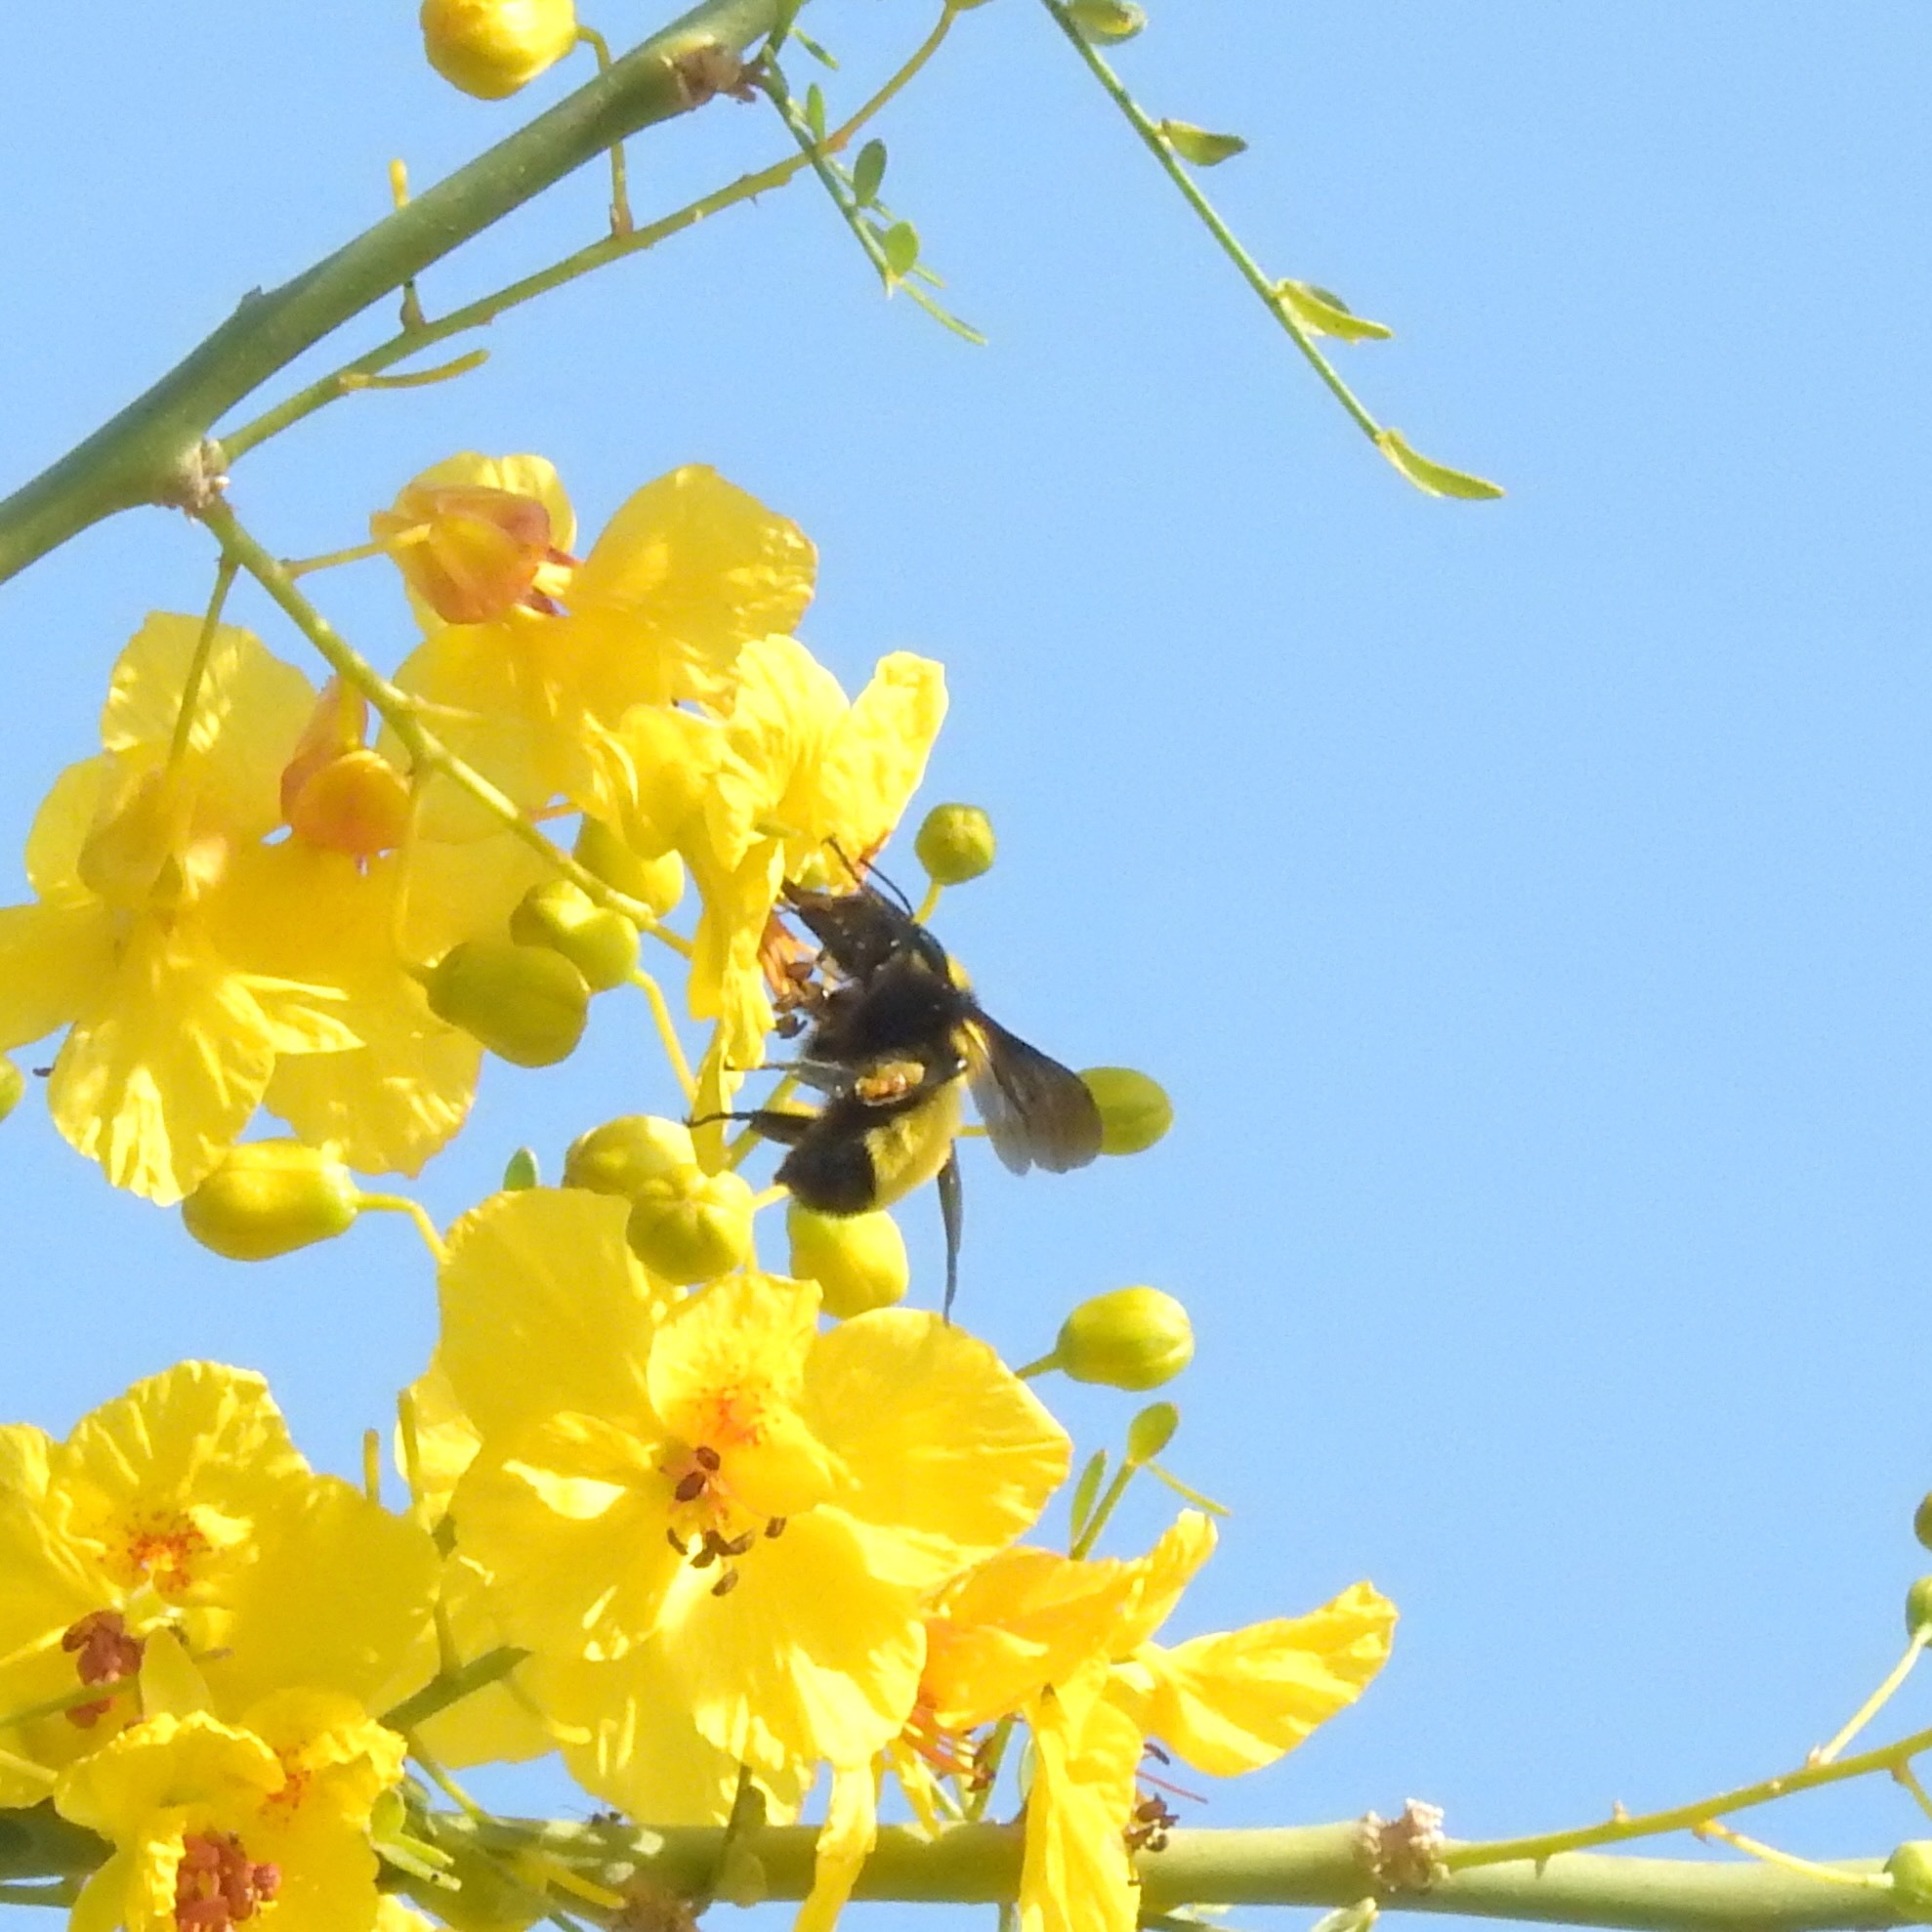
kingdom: Animalia
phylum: Arthropoda
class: Insecta
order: Hymenoptera
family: Apidae
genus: Bombus
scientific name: Bombus sonorus
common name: Sonoran bumble bee
